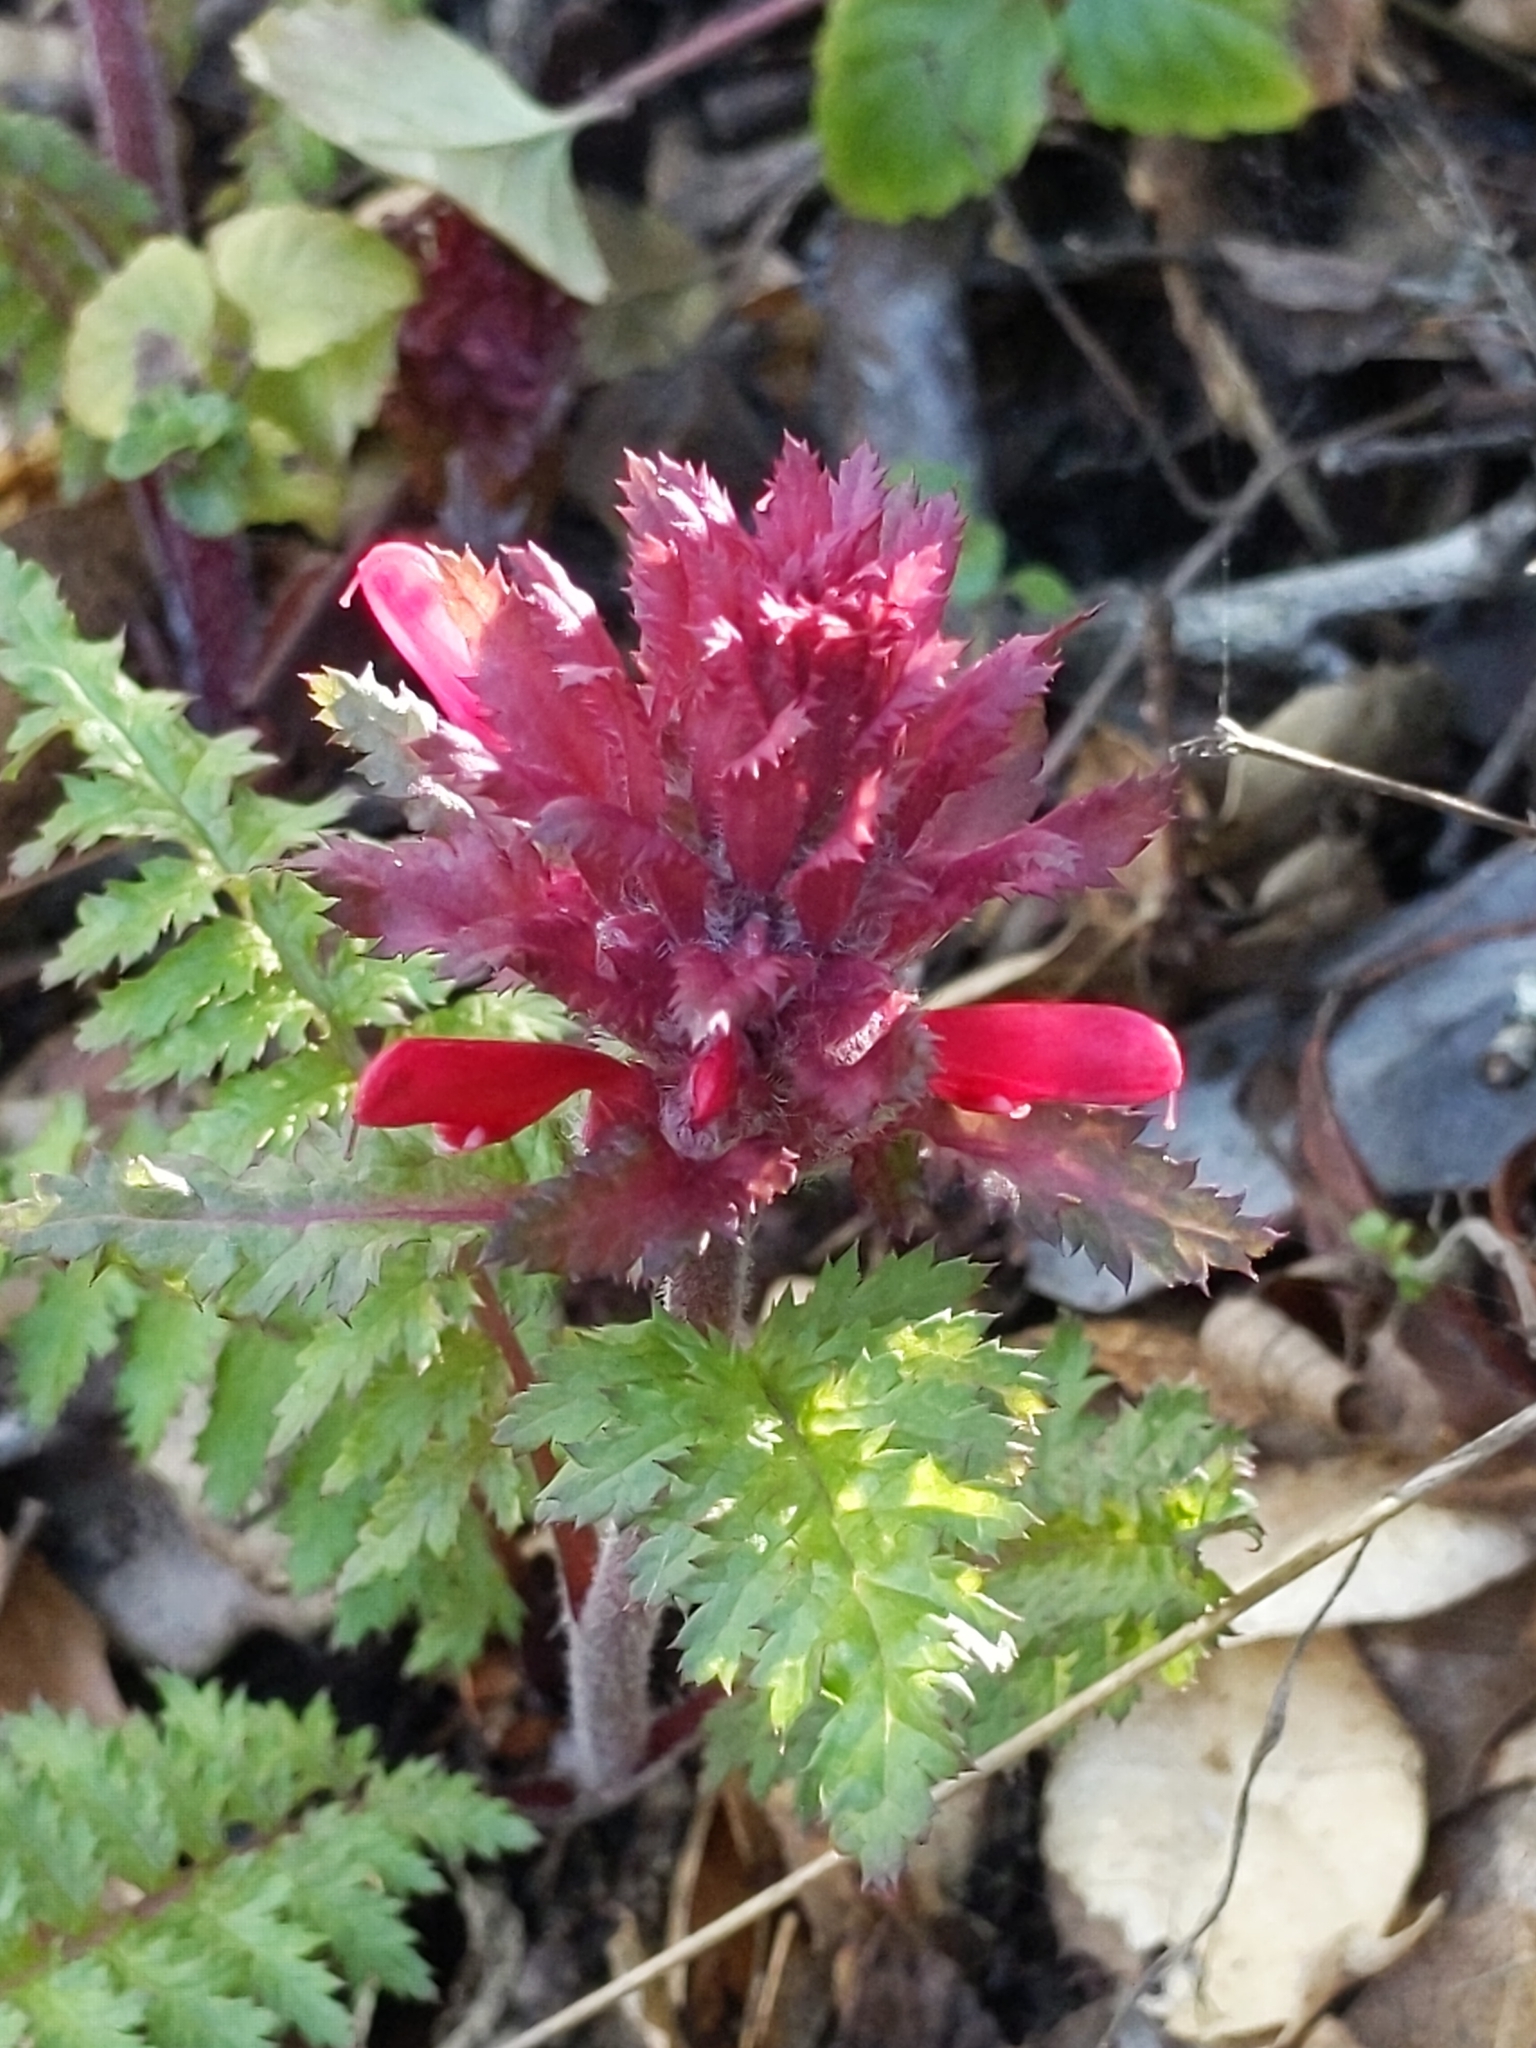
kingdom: Plantae
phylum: Tracheophyta
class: Magnoliopsida
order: Lamiales
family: Orobanchaceae
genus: Pedicularis
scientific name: Pedicularis densiflora
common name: Indian warrior
